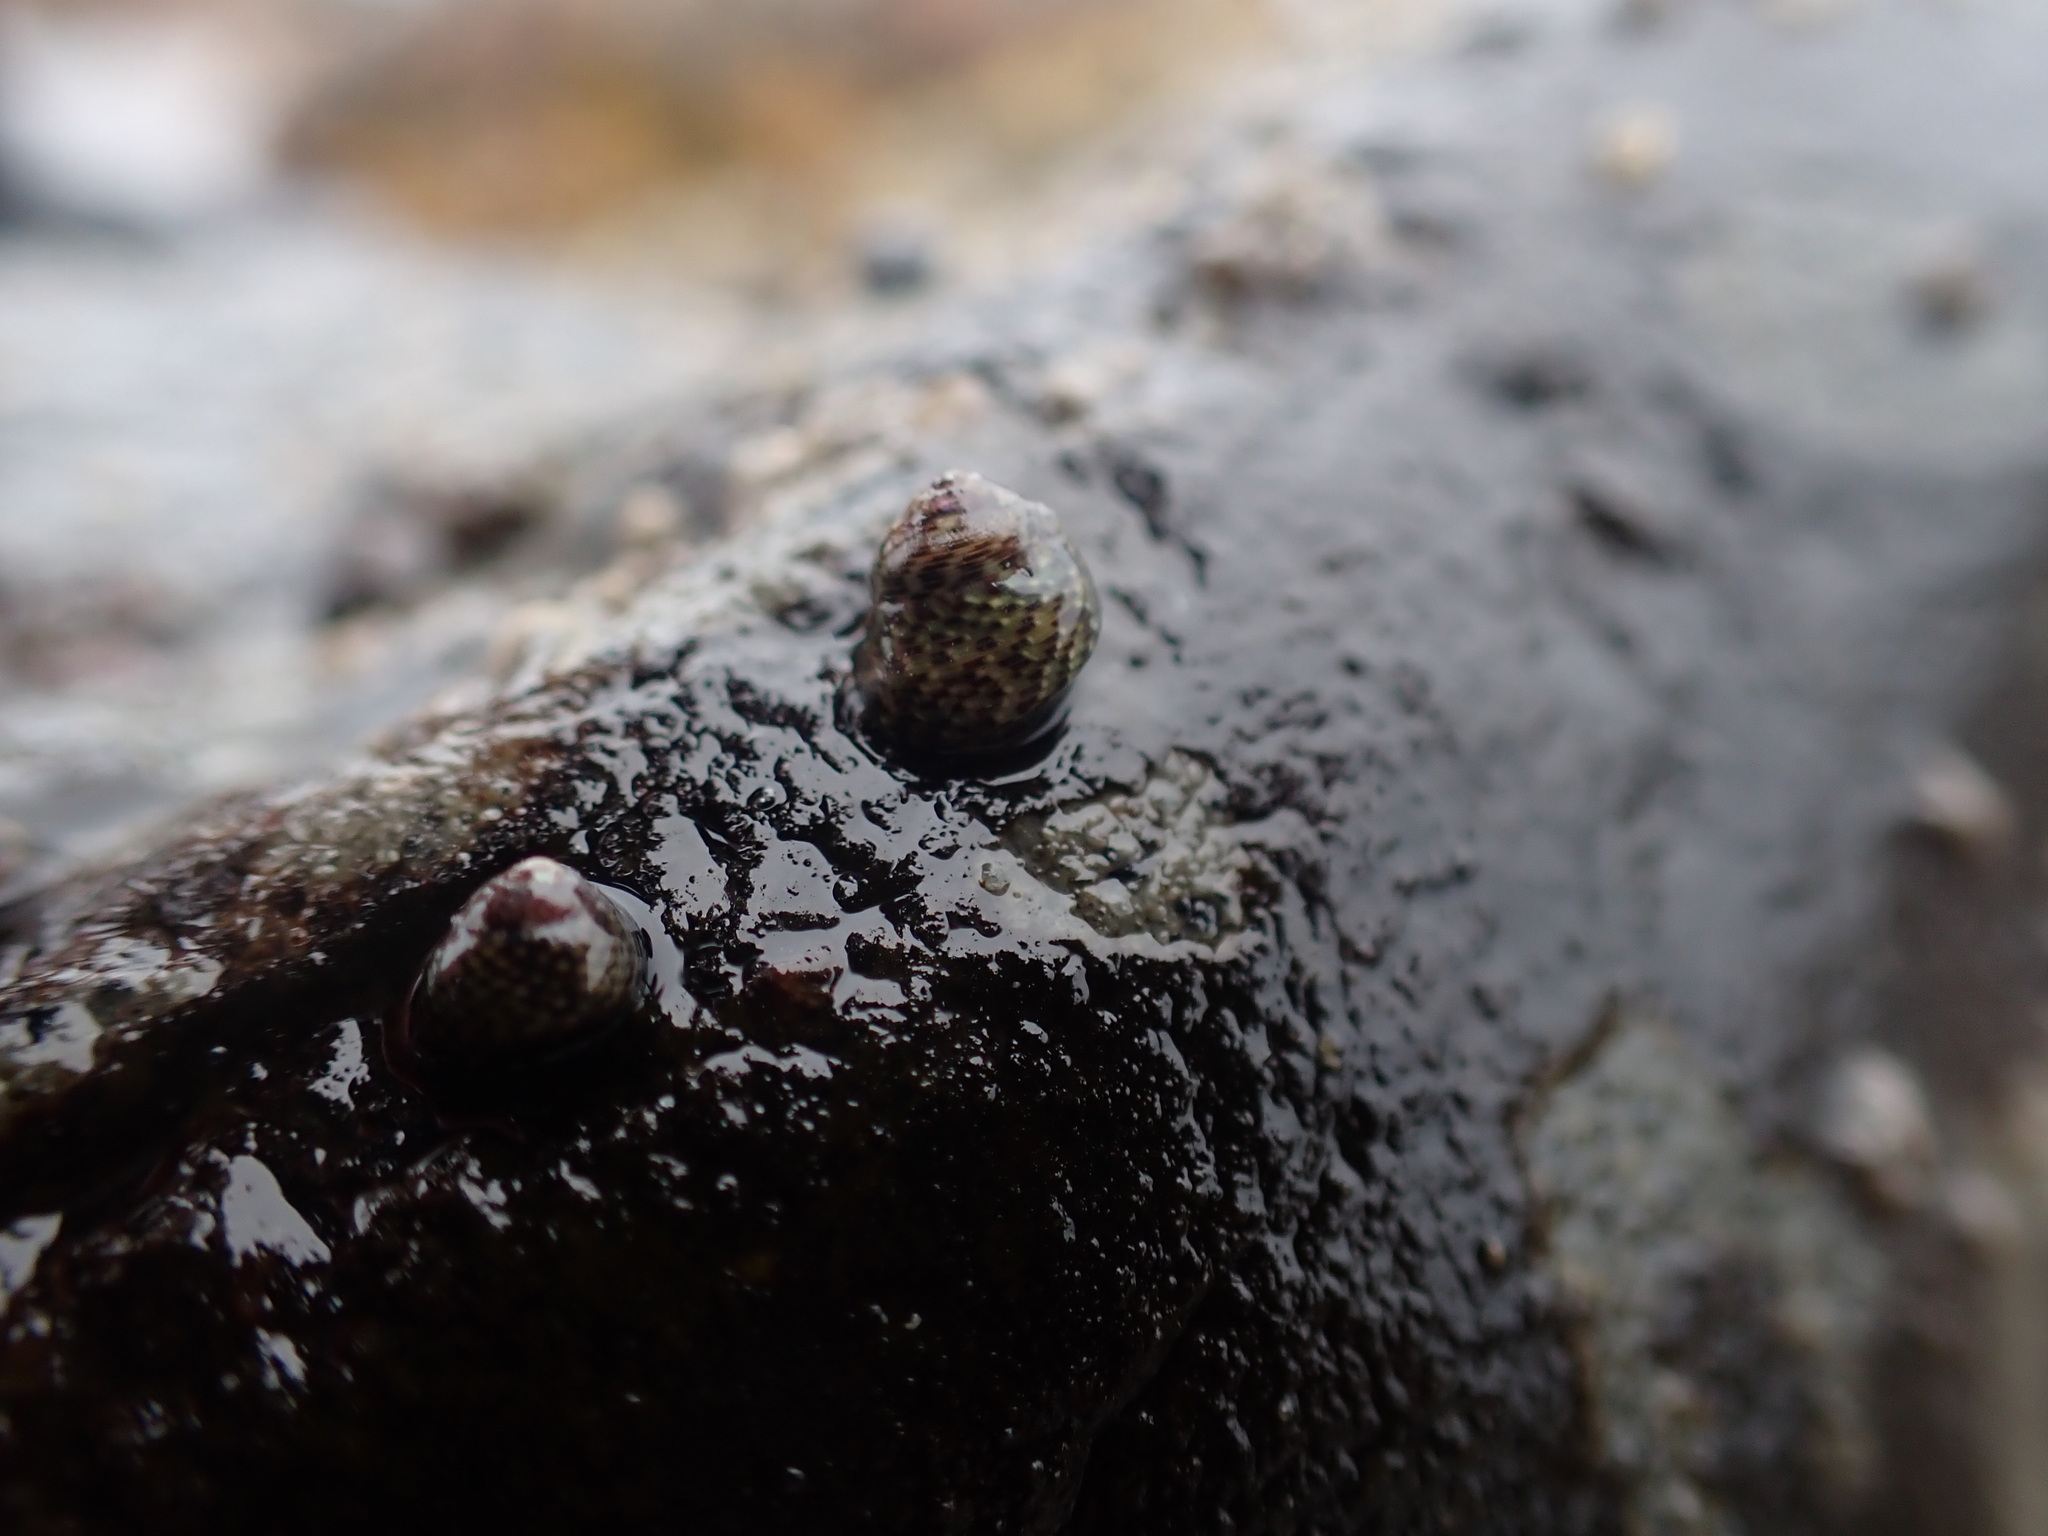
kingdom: Animalia
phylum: Mollusca
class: Gastropoda
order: Trochida
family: Trochidae
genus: Micrelenchus
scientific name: Micrelenchus tessellatus
